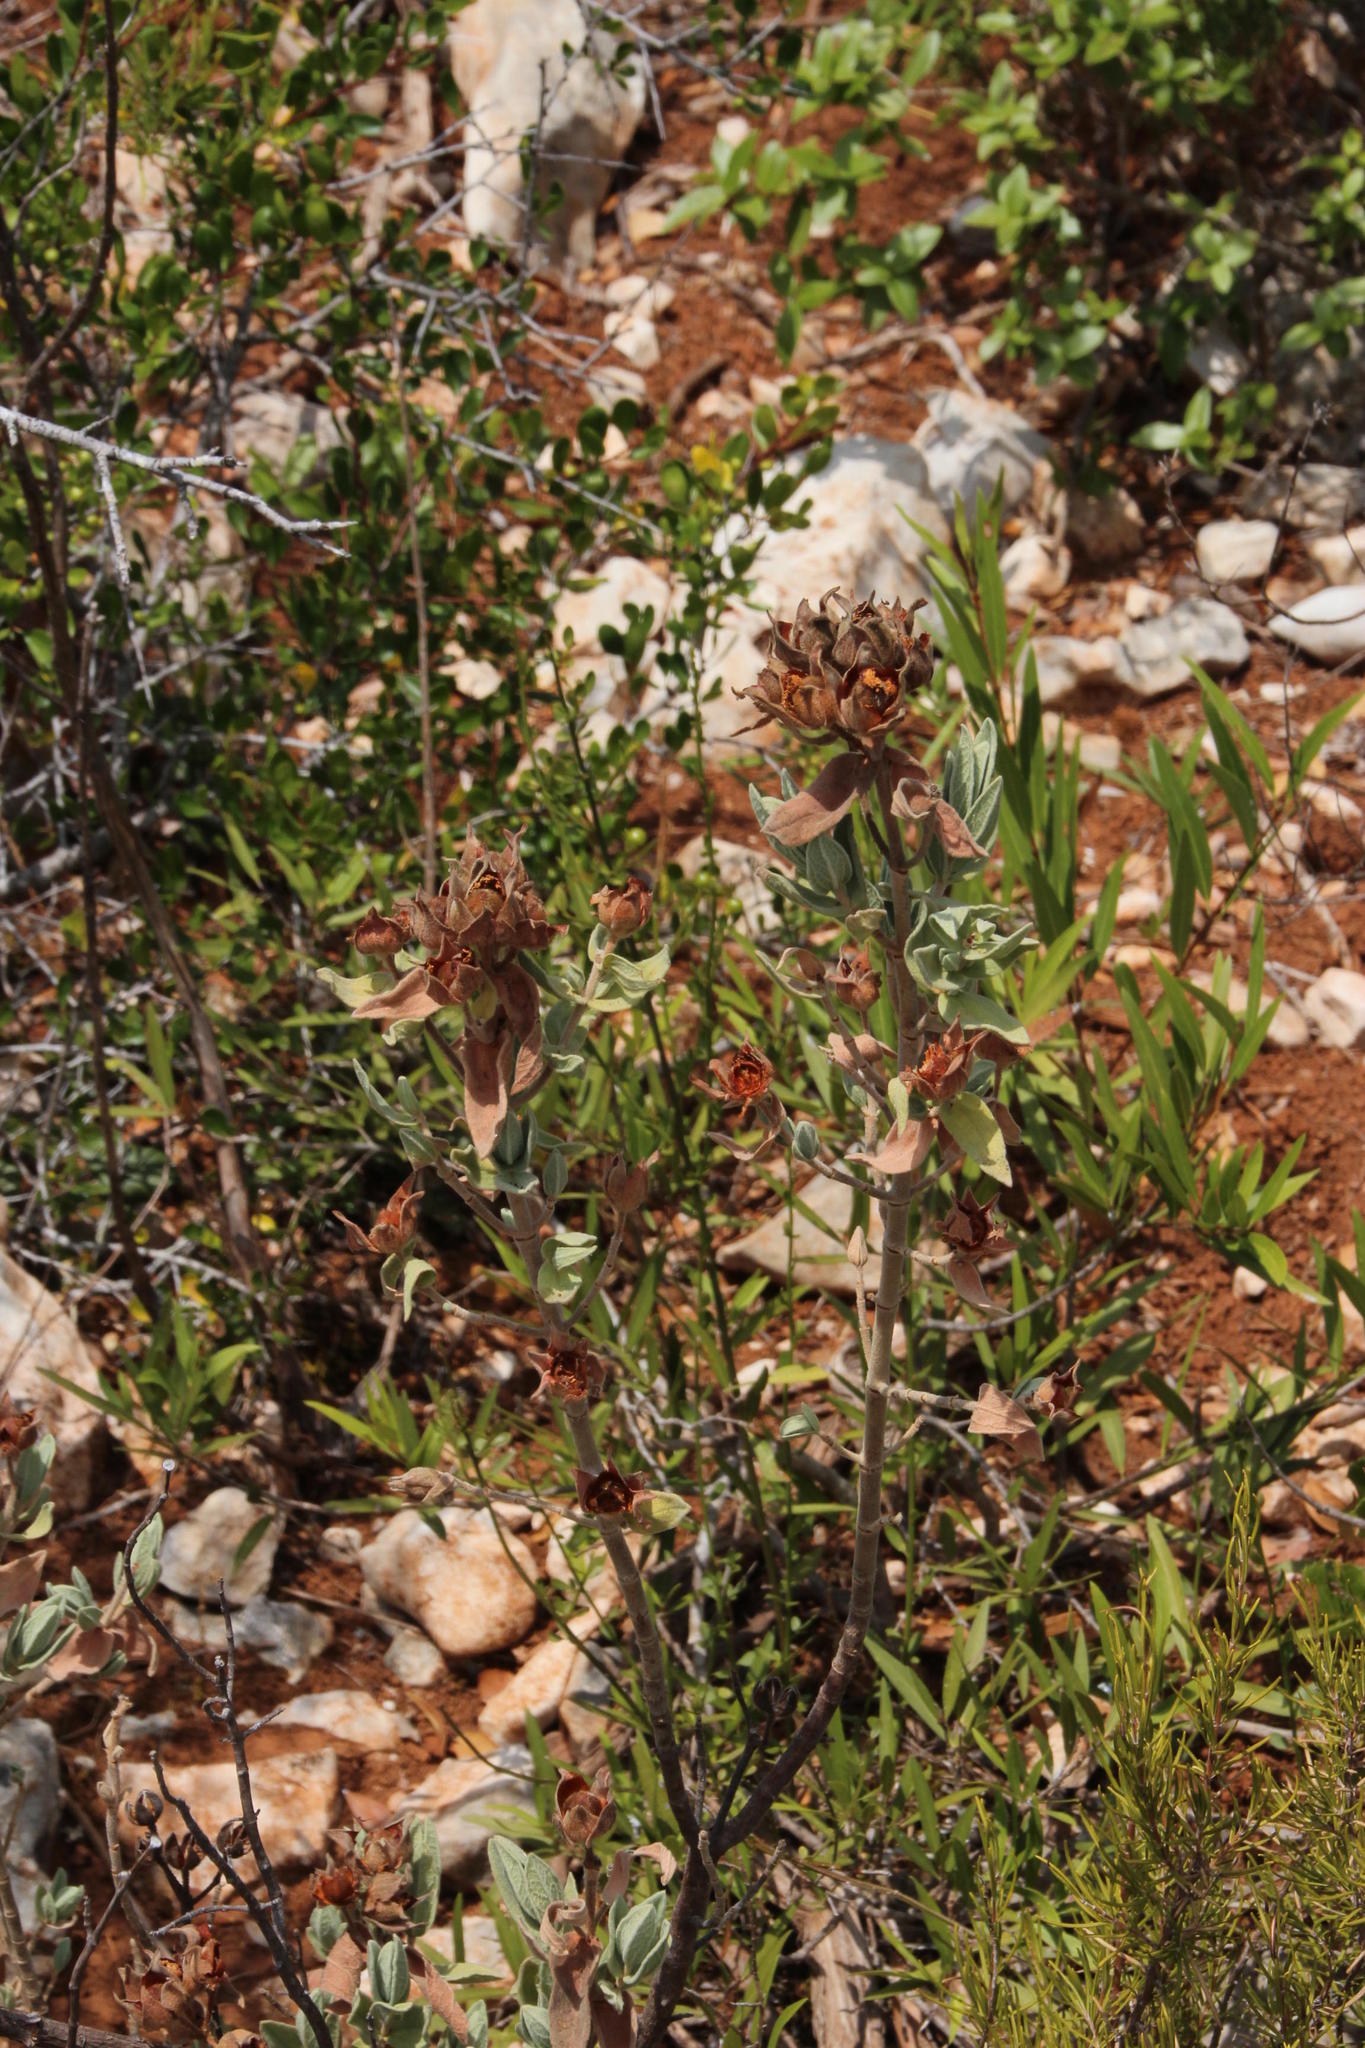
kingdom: Plantae
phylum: Tracheophyta
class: Magnoliopsida
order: Malvales
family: Cistaceae
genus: Cistus
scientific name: Cistus albidus
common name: White-leaf rock-rose
